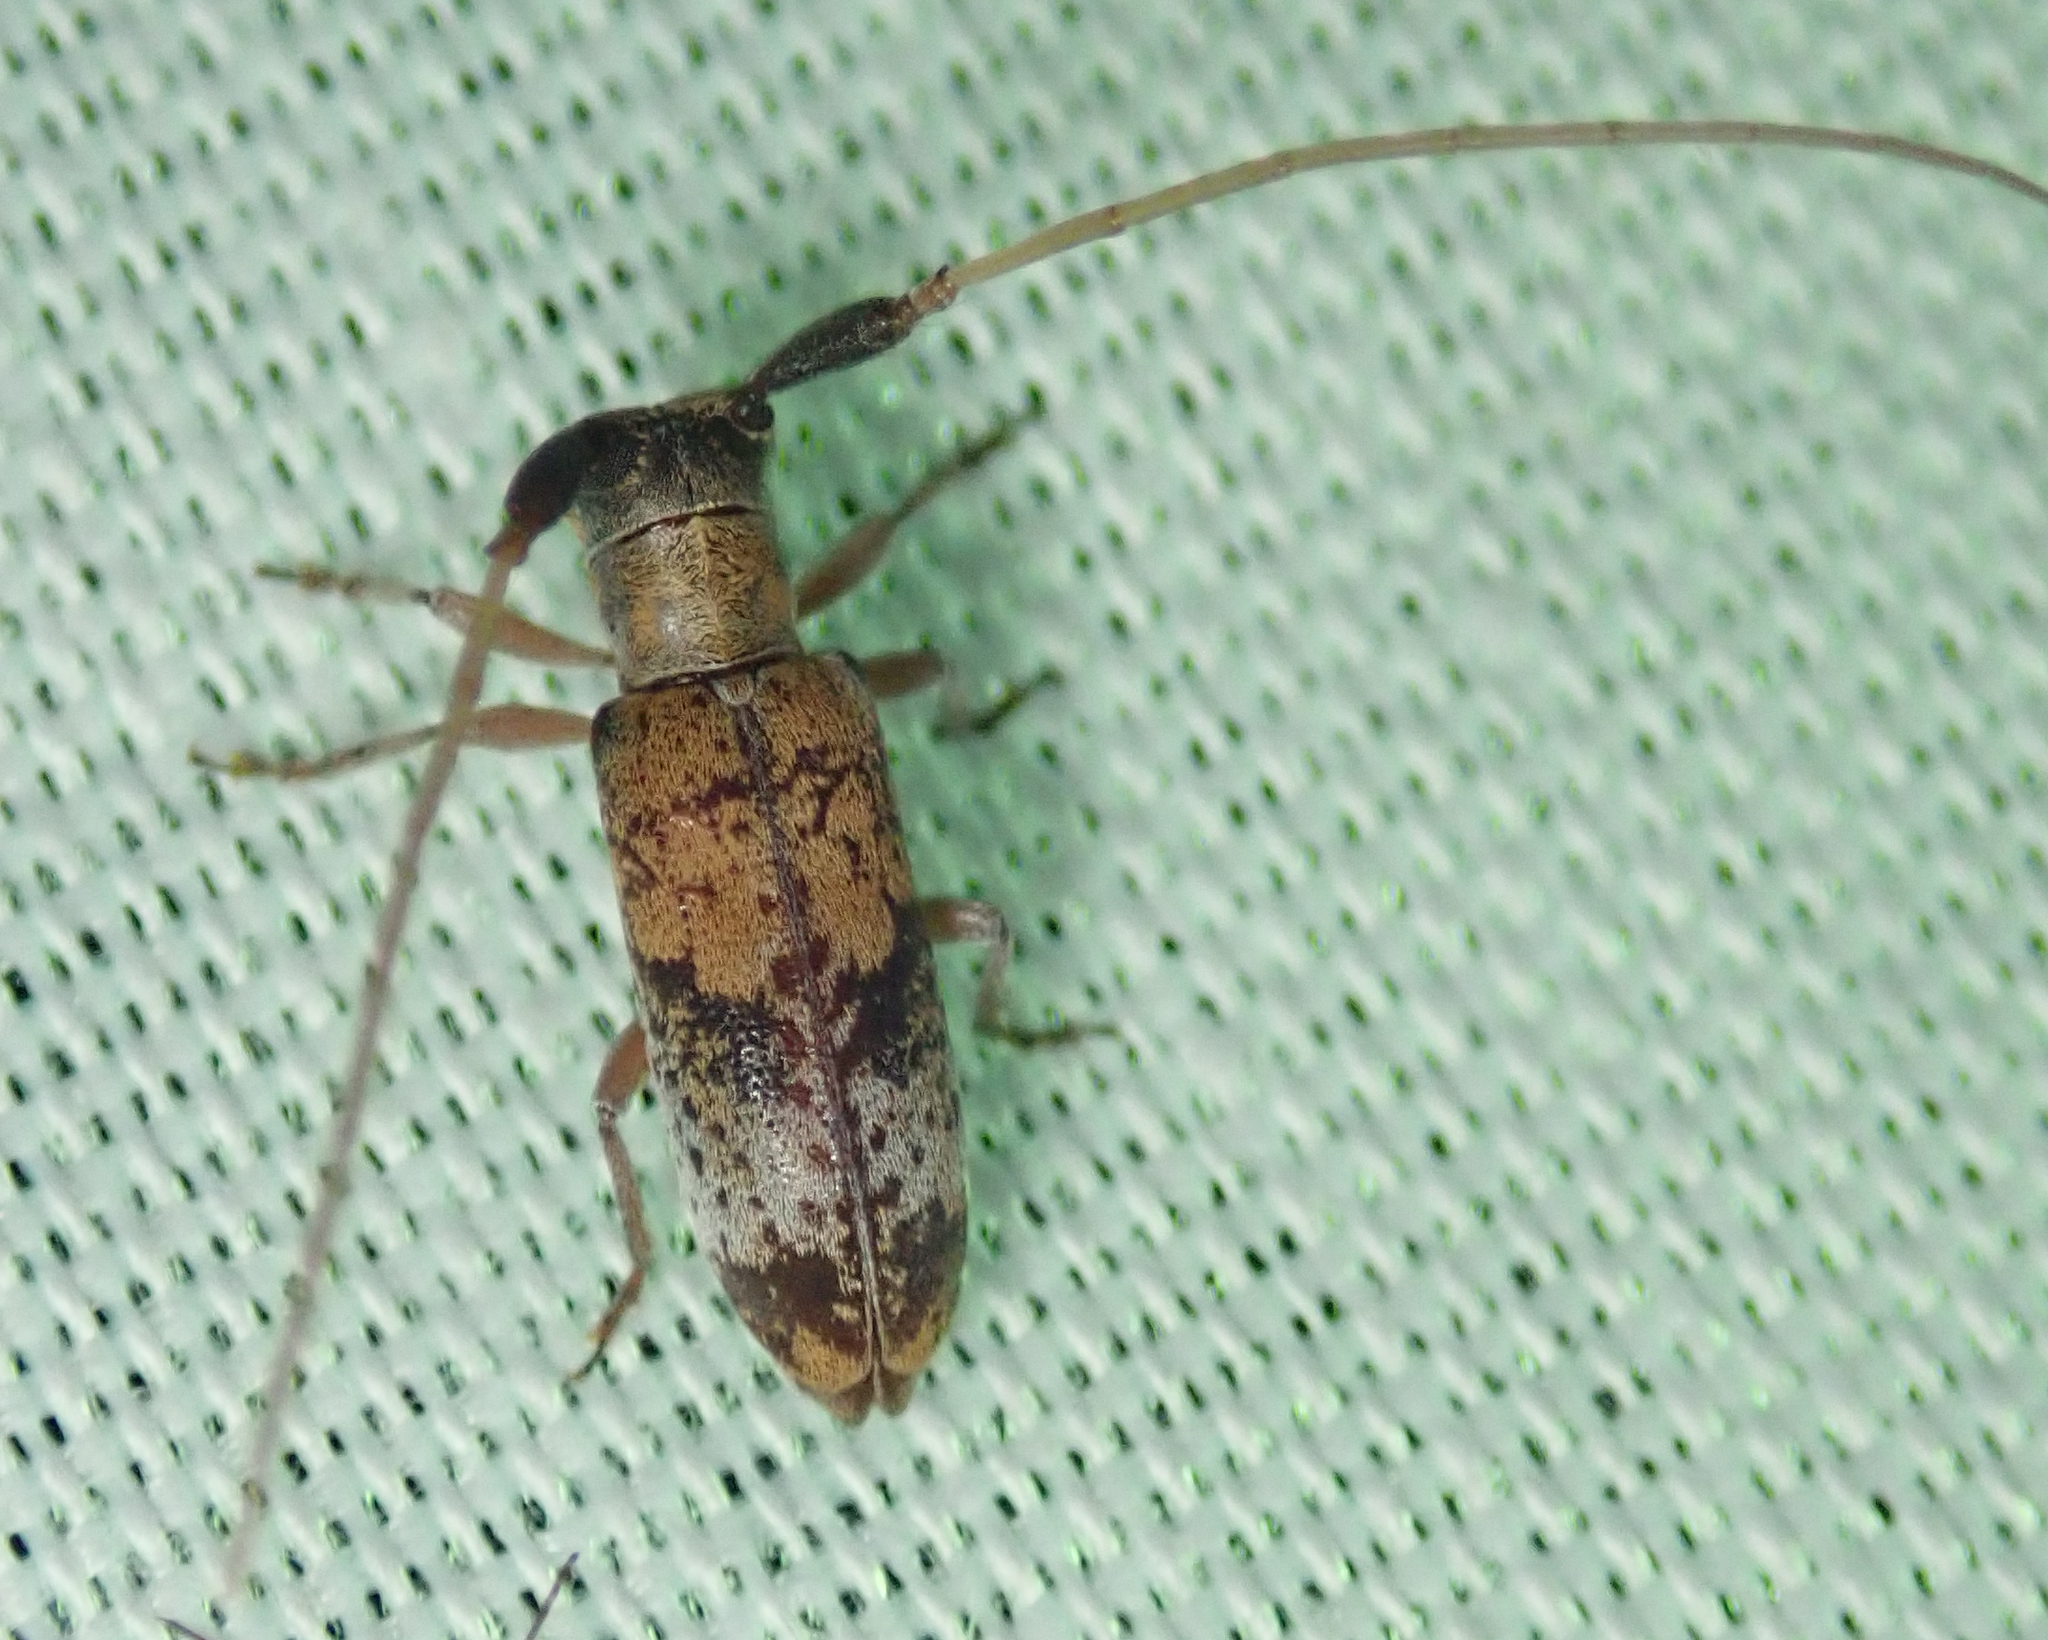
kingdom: Animalia
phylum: Arthropoda
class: Insecta
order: Coleoptera
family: Cerambycidae
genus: Eunidia
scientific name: Eunidia subtergrisea
